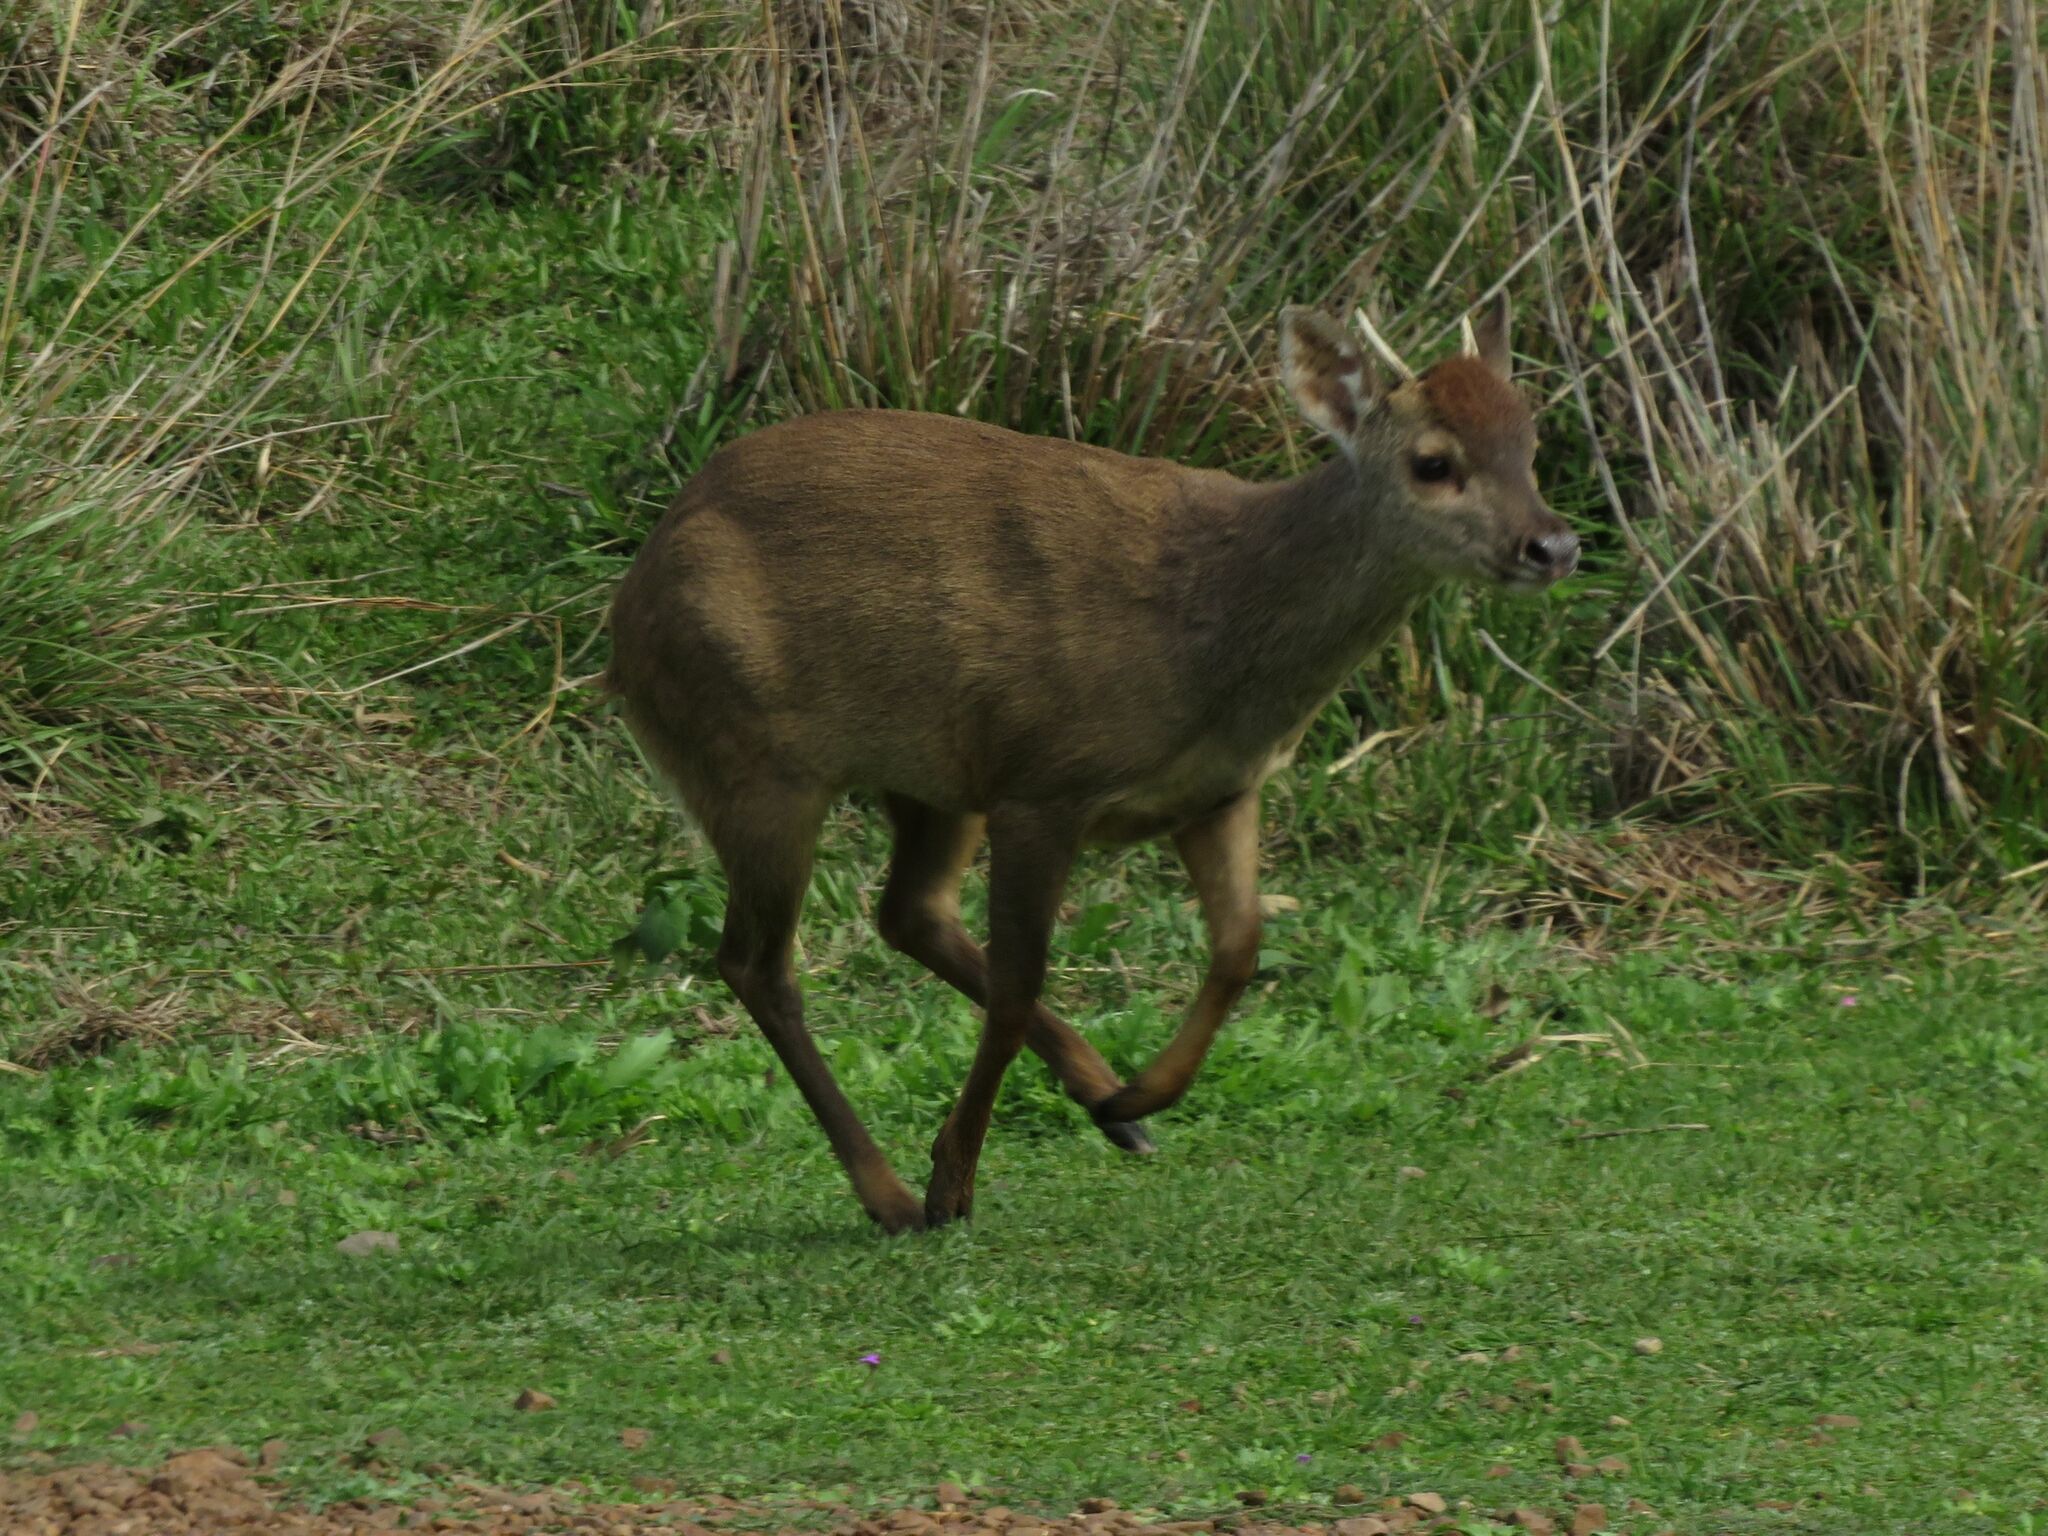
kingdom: Animalia
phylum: Chordata
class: Mammalia
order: Artiodactyla
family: Cervidae
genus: Mazama
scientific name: Mazama gouazoubira
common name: Gray brocket
